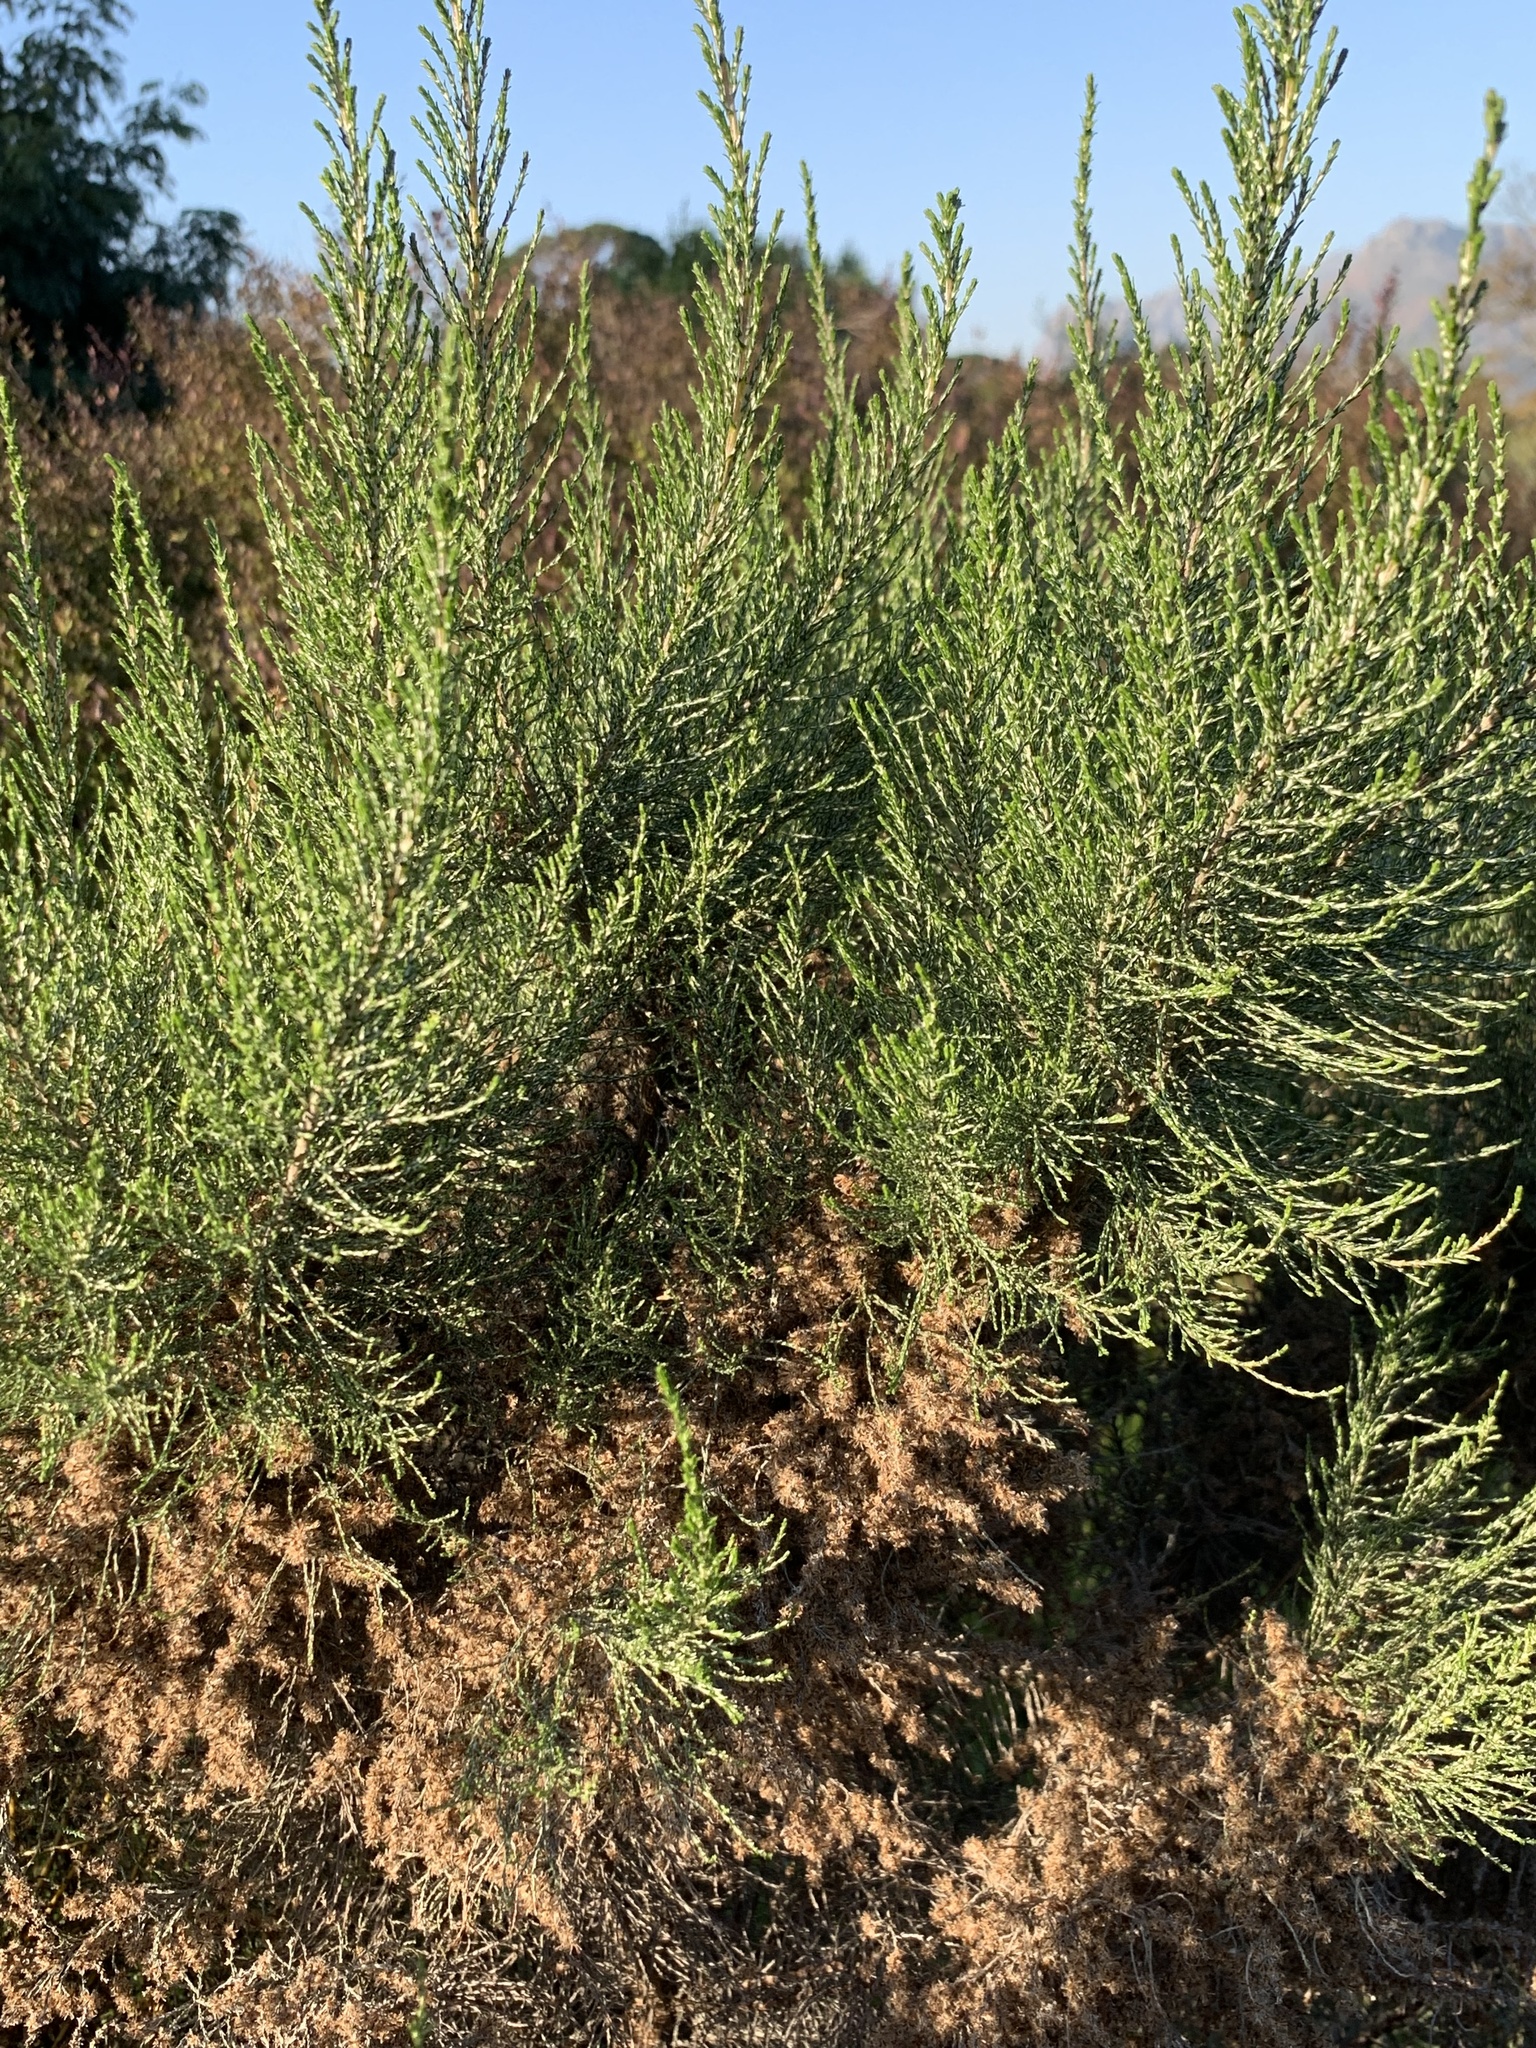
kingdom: Plantae
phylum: Tracheophyta
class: Magnoliopsida
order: Asterales
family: Asteraceae
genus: Dicerothamnus
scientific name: Dicerothamnus rhinocerotis
